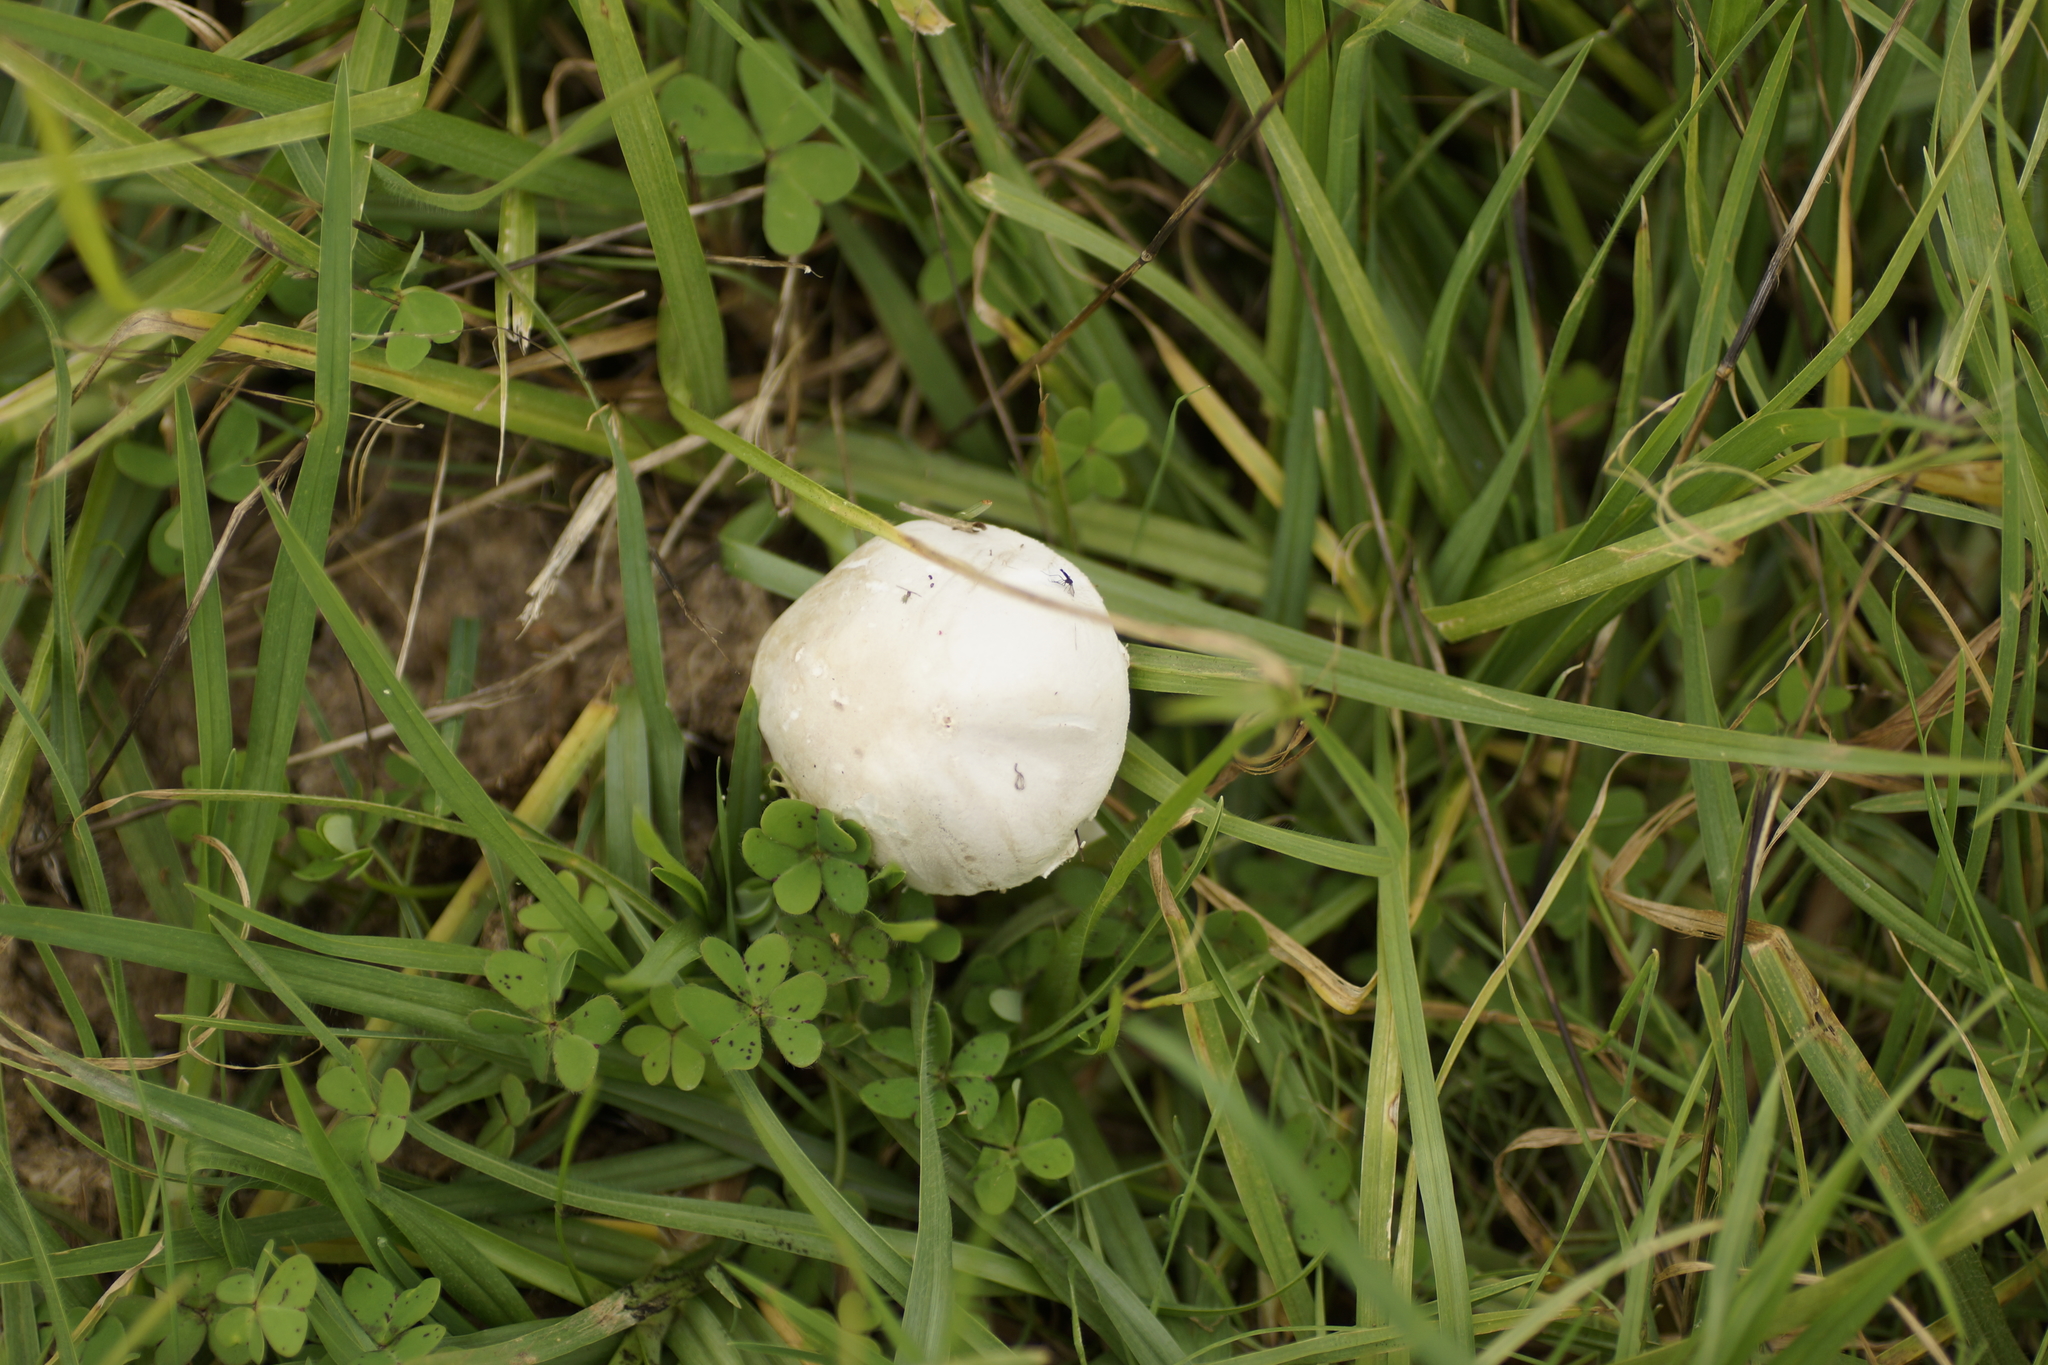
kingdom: Fungi
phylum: Basidiomycota
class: Agaricomycetes
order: Agaricales
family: Agaricaceae
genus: Leucoagaricus
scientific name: Leucoagaricus leucothites
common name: White dapperling
